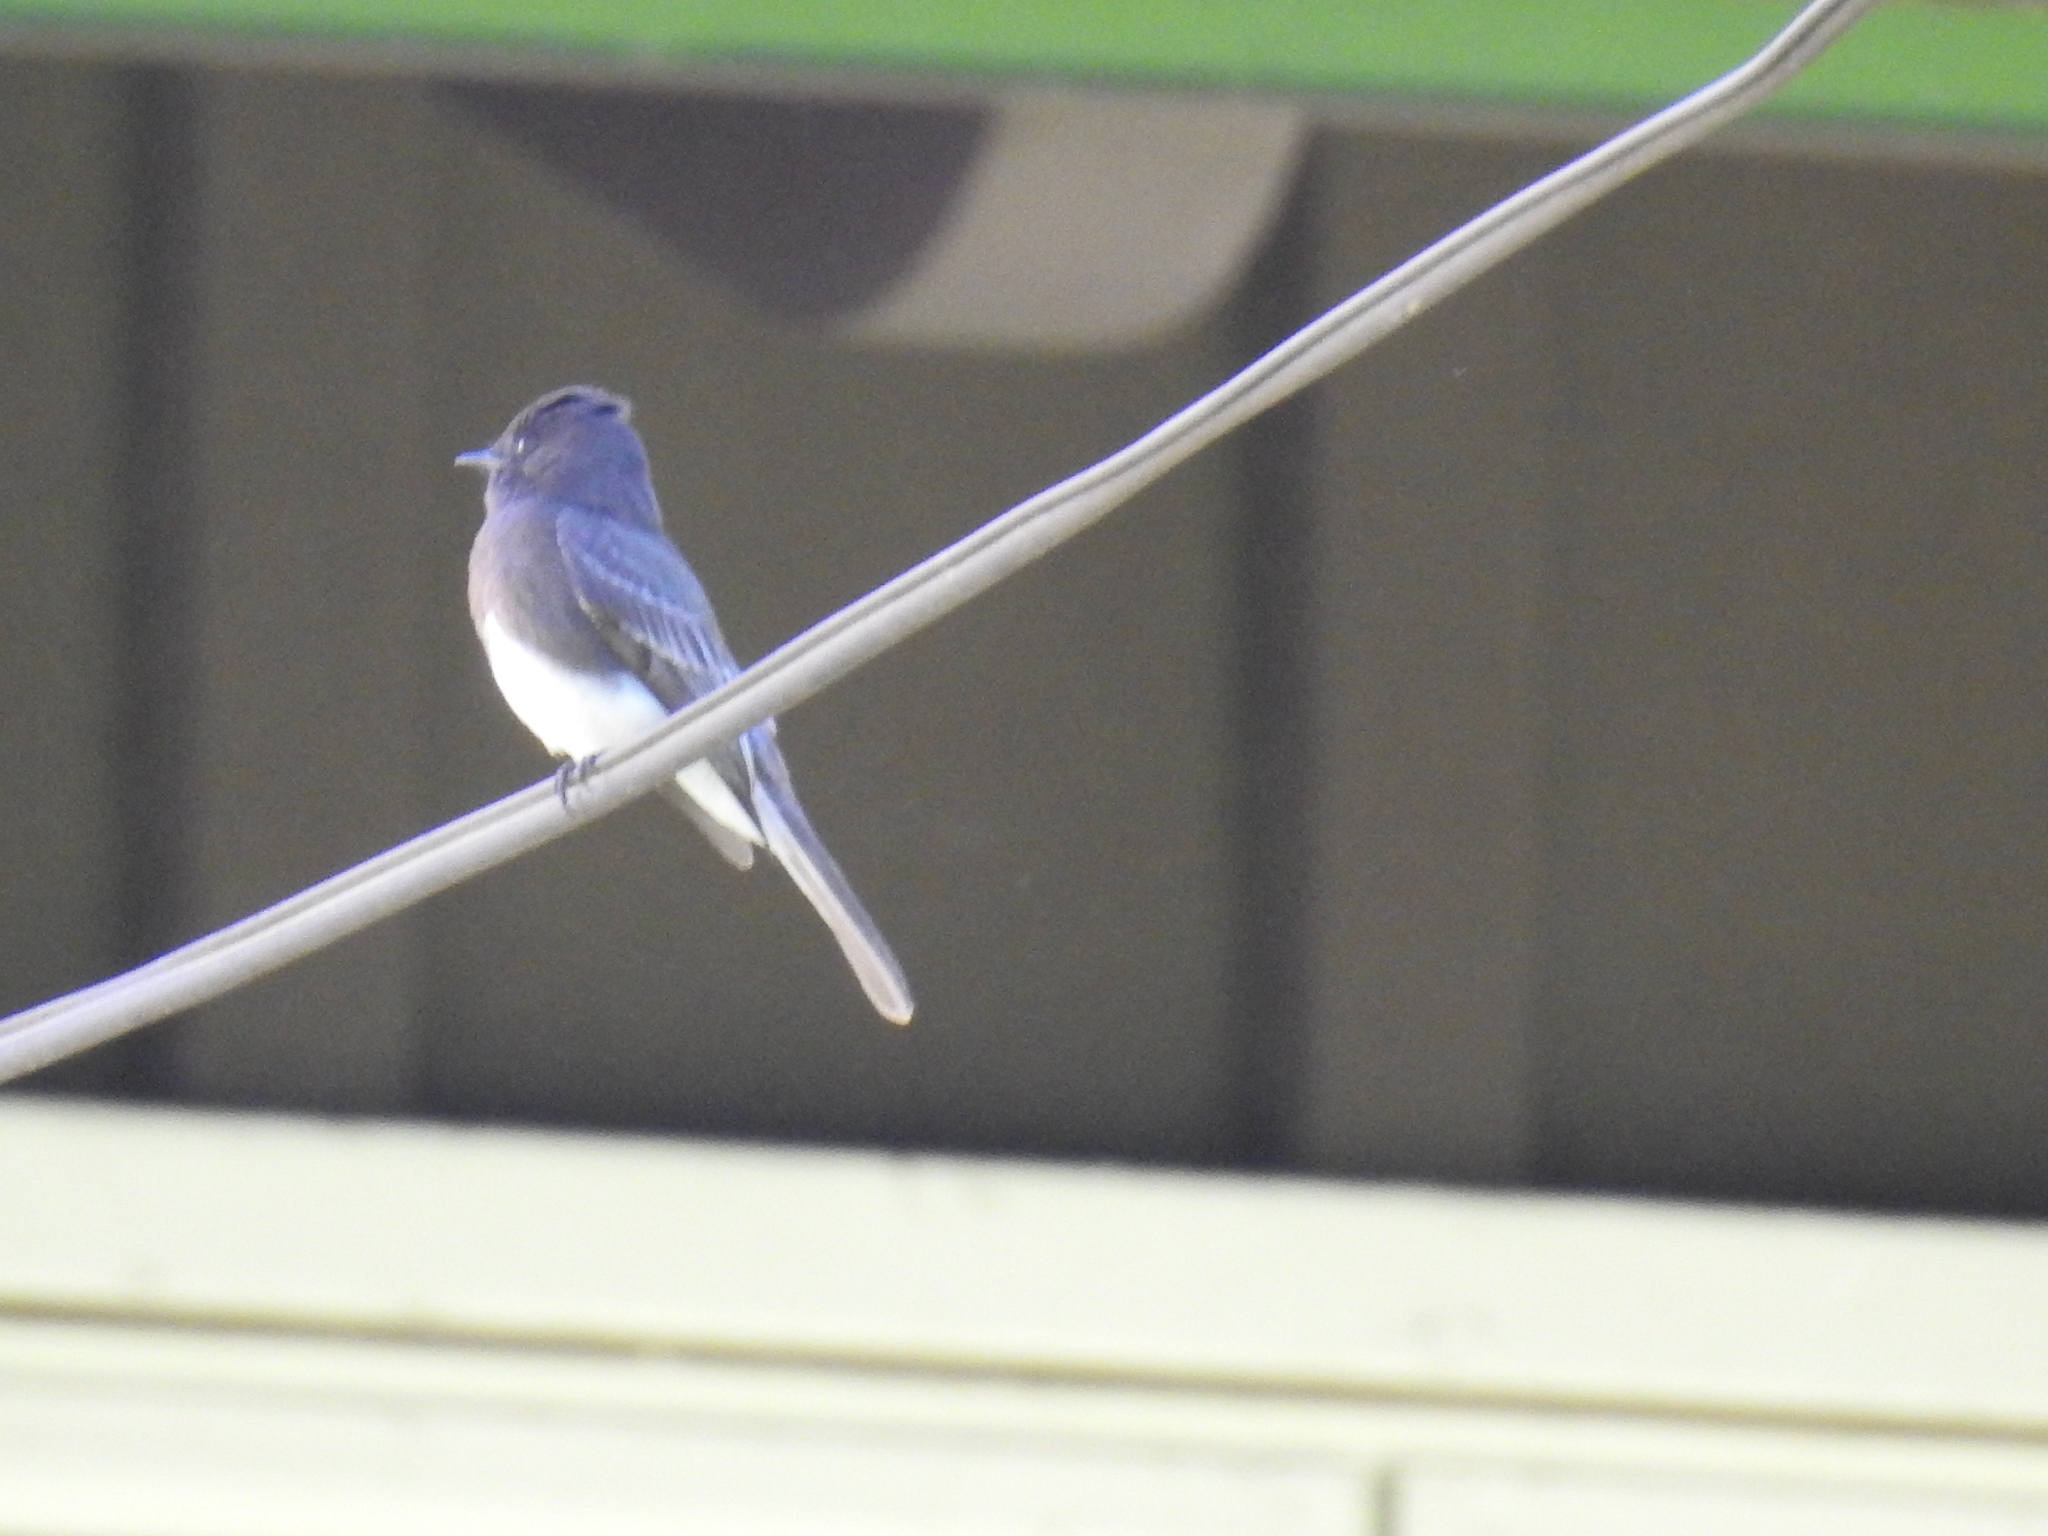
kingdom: Animalia
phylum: Chordata
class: Aves
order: Passeriformes
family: Tyrannidae
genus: Sayornis
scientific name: Sayornis nigricans
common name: Black phoebe
